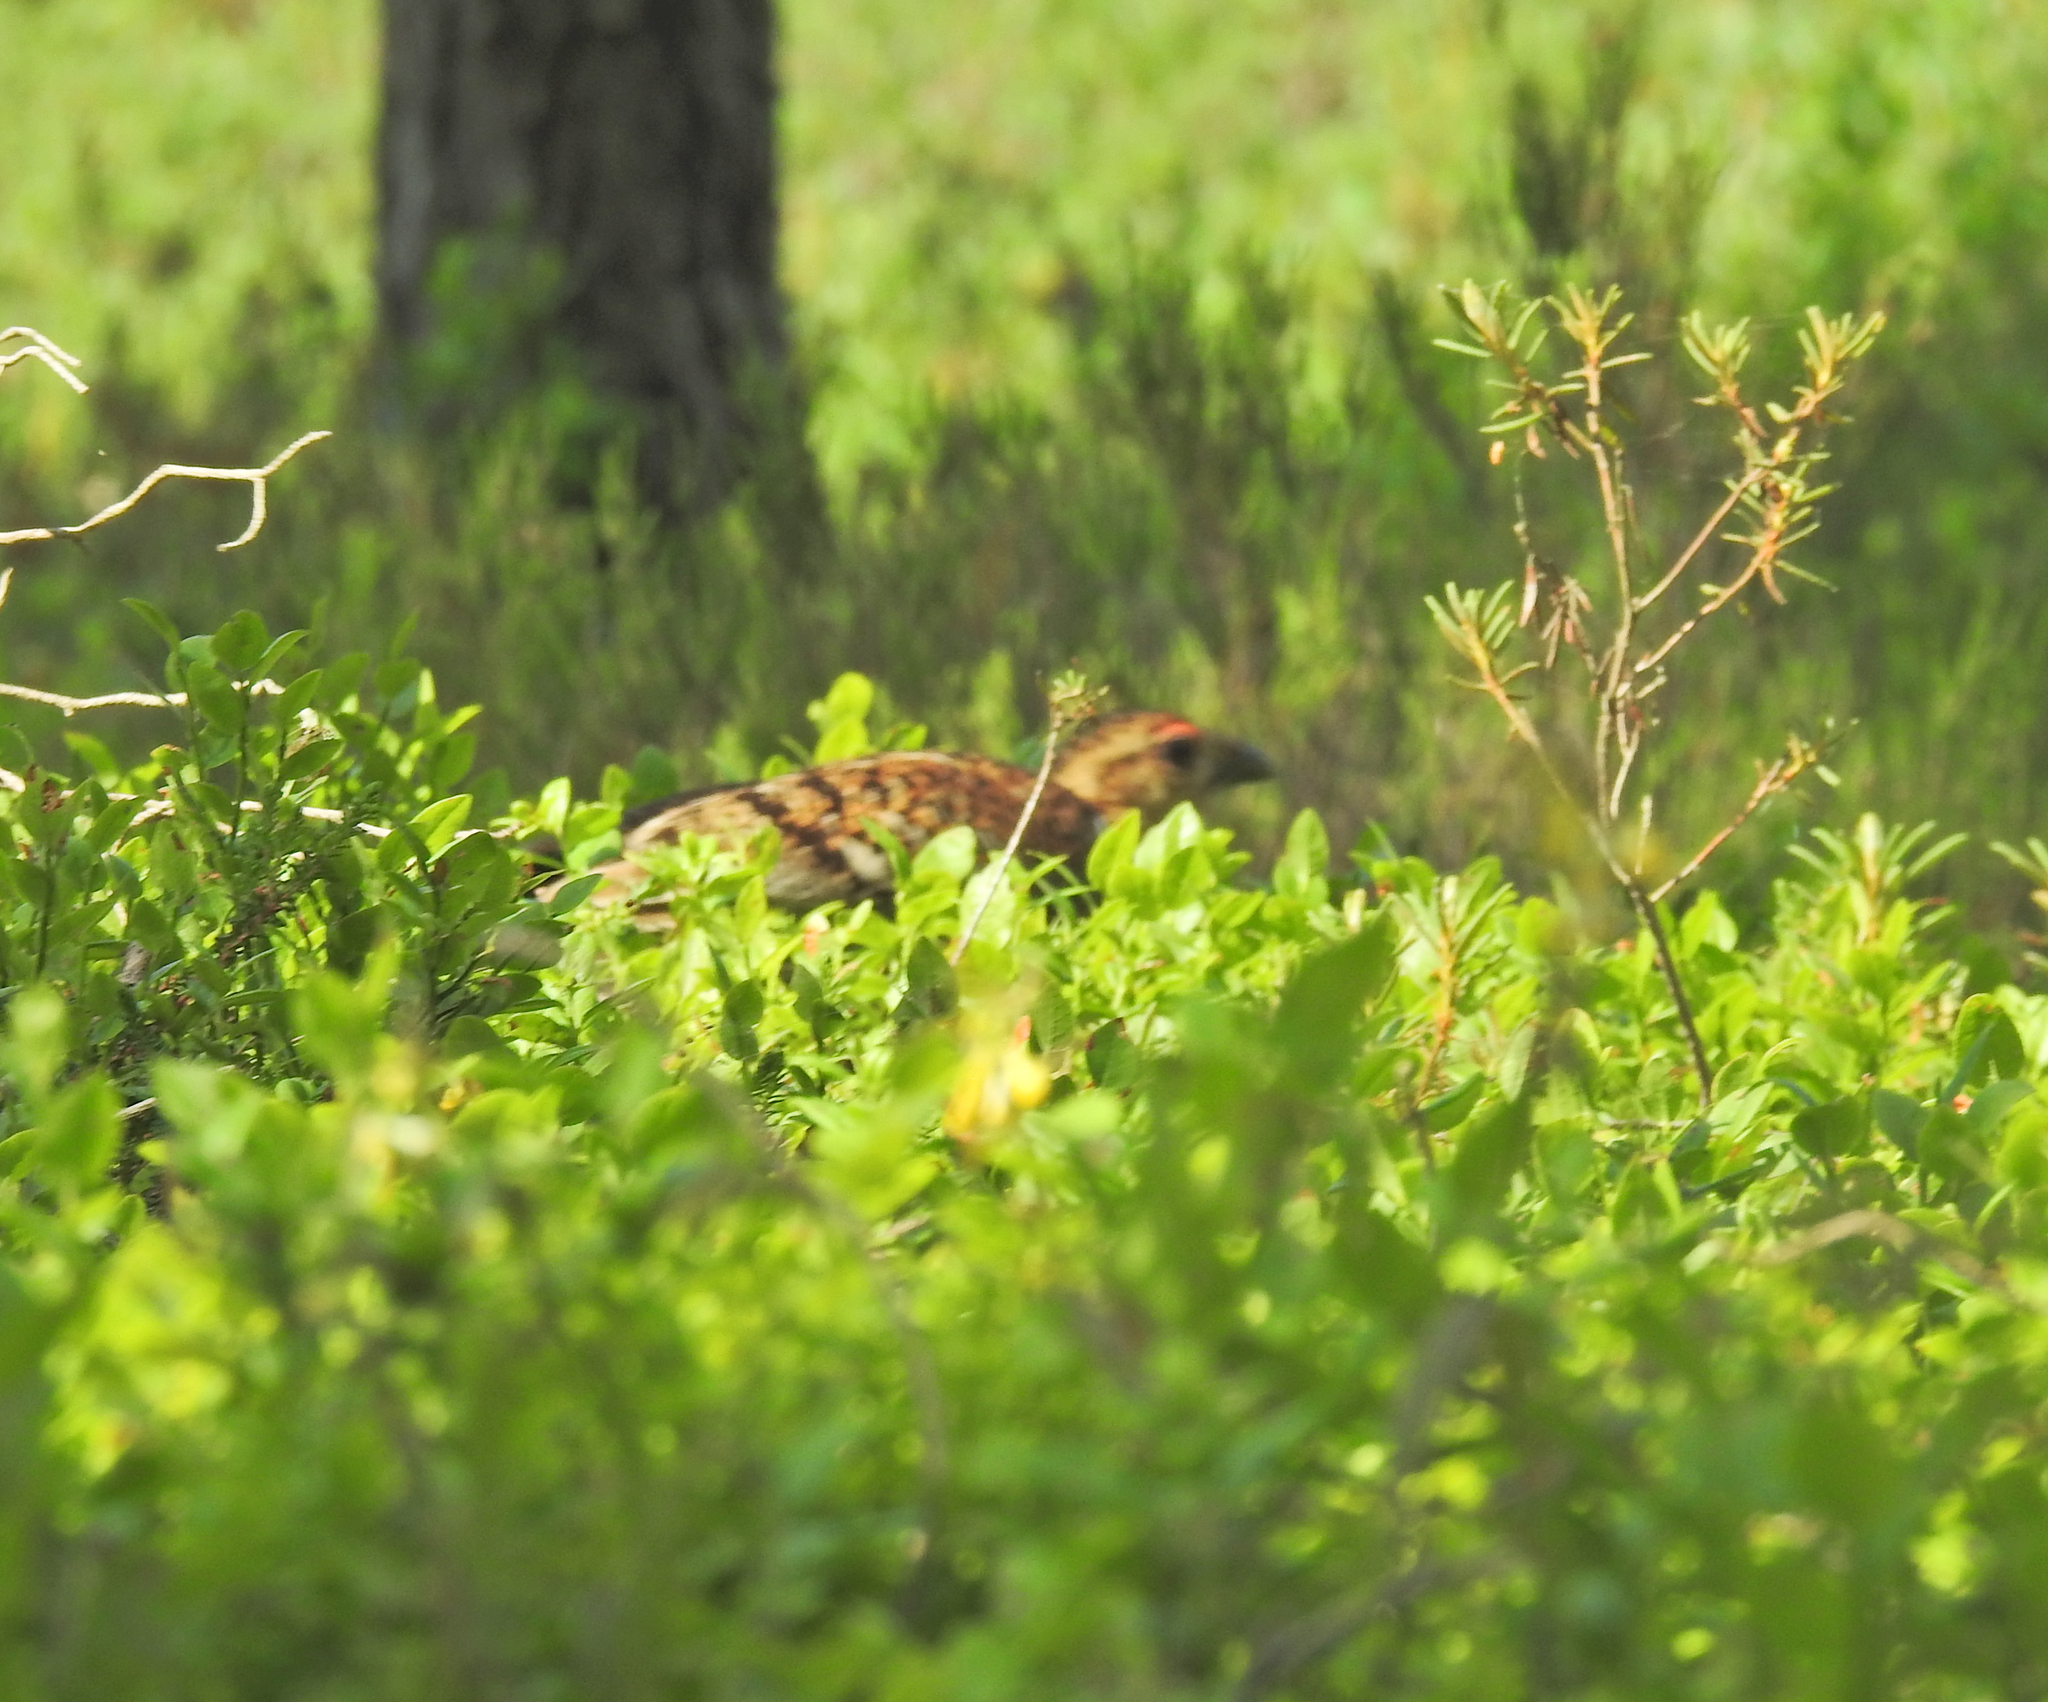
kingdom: Animalia
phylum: Chordata
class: Aves
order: Galliformes
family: Phasianidae
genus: Tetrao
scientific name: Tetrao urogallus
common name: Western capercaillie
